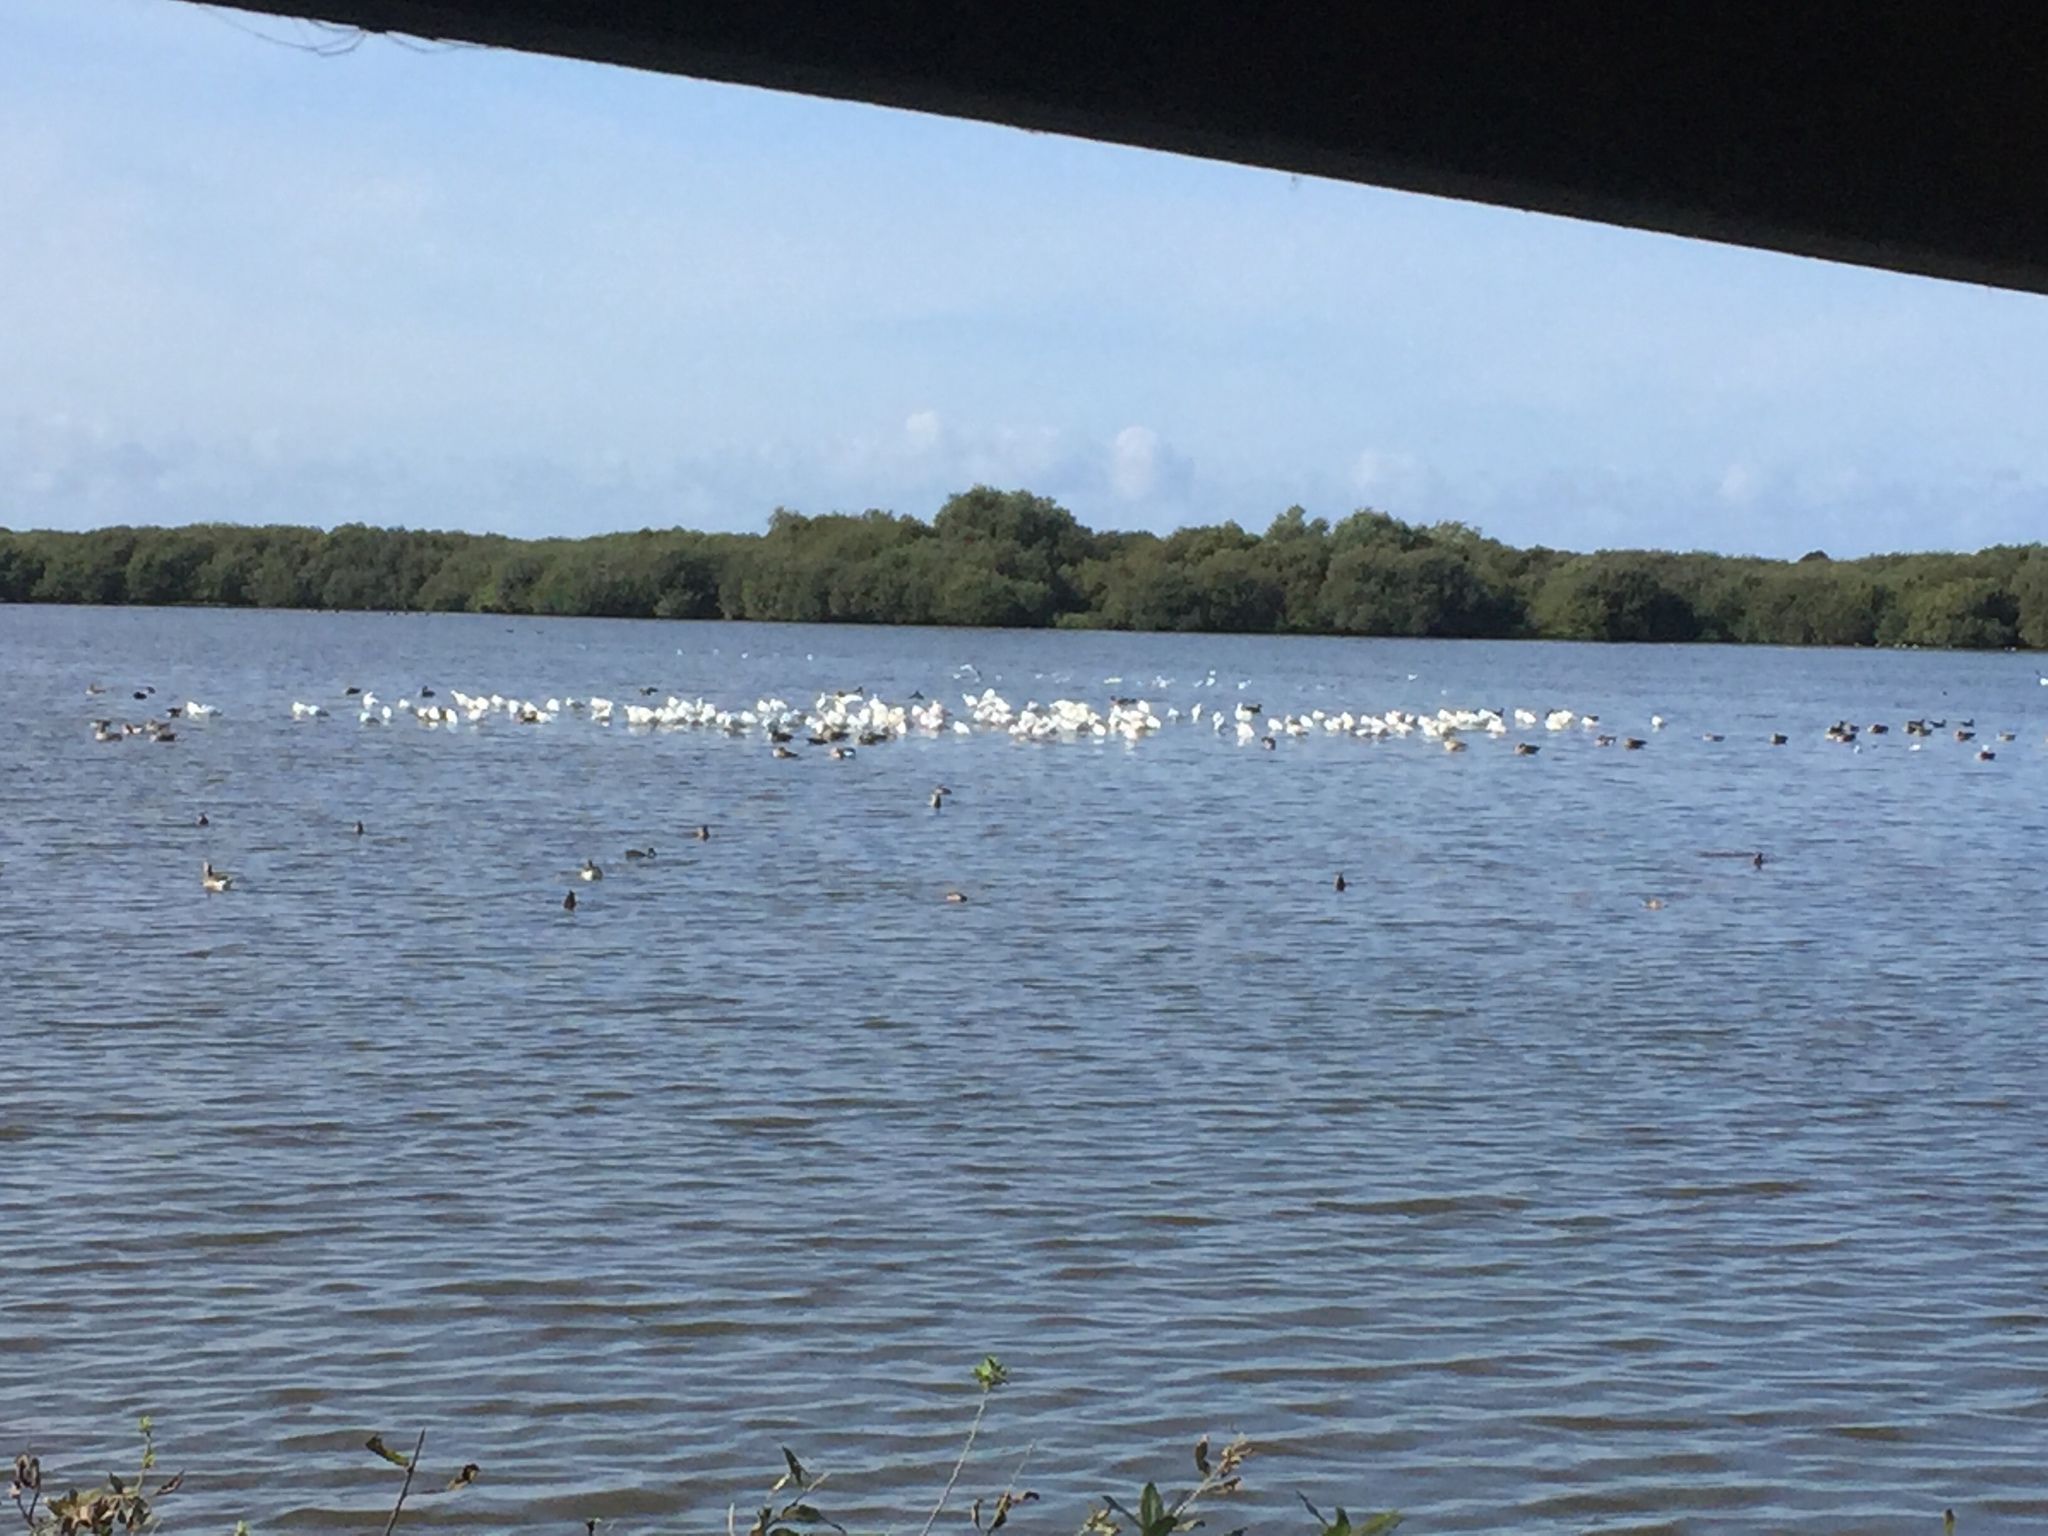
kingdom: Animalia
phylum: Chordata
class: Aves
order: Pelecaniformes
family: Threskiornithidae
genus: Platalea
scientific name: Platalea leucorodia
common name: Eurasian spoonbill
